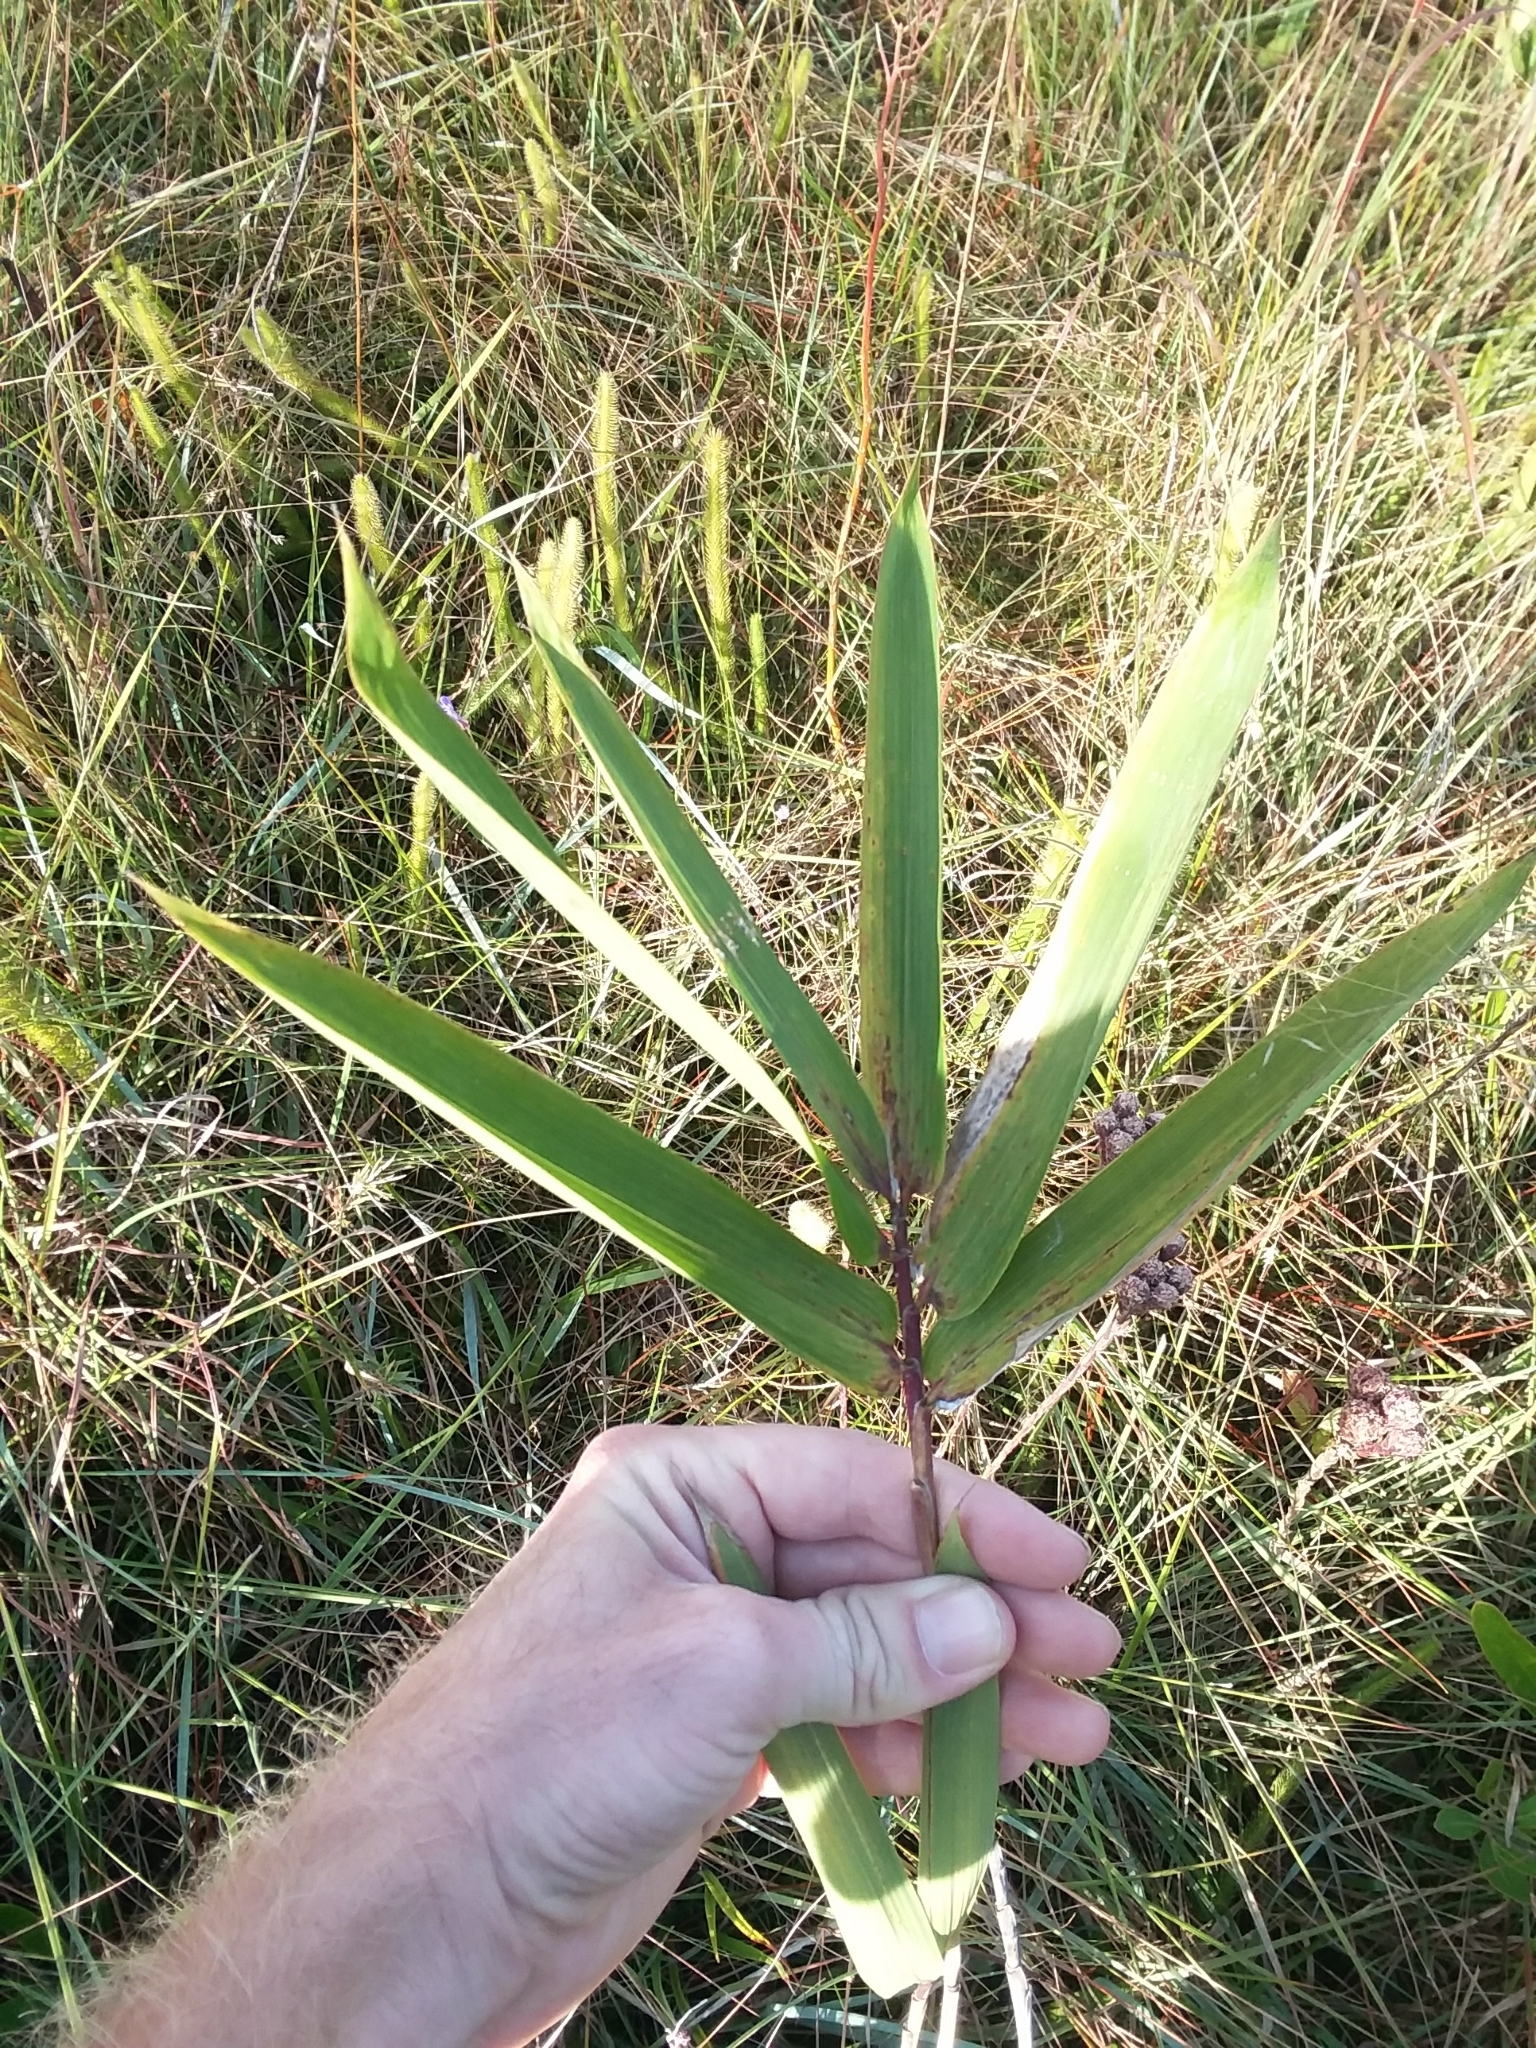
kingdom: Plantae
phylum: Tracheophyta
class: Liliopsida
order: Poales
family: Poaceae
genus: Arundinaria
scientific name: Arundinaria tecta
